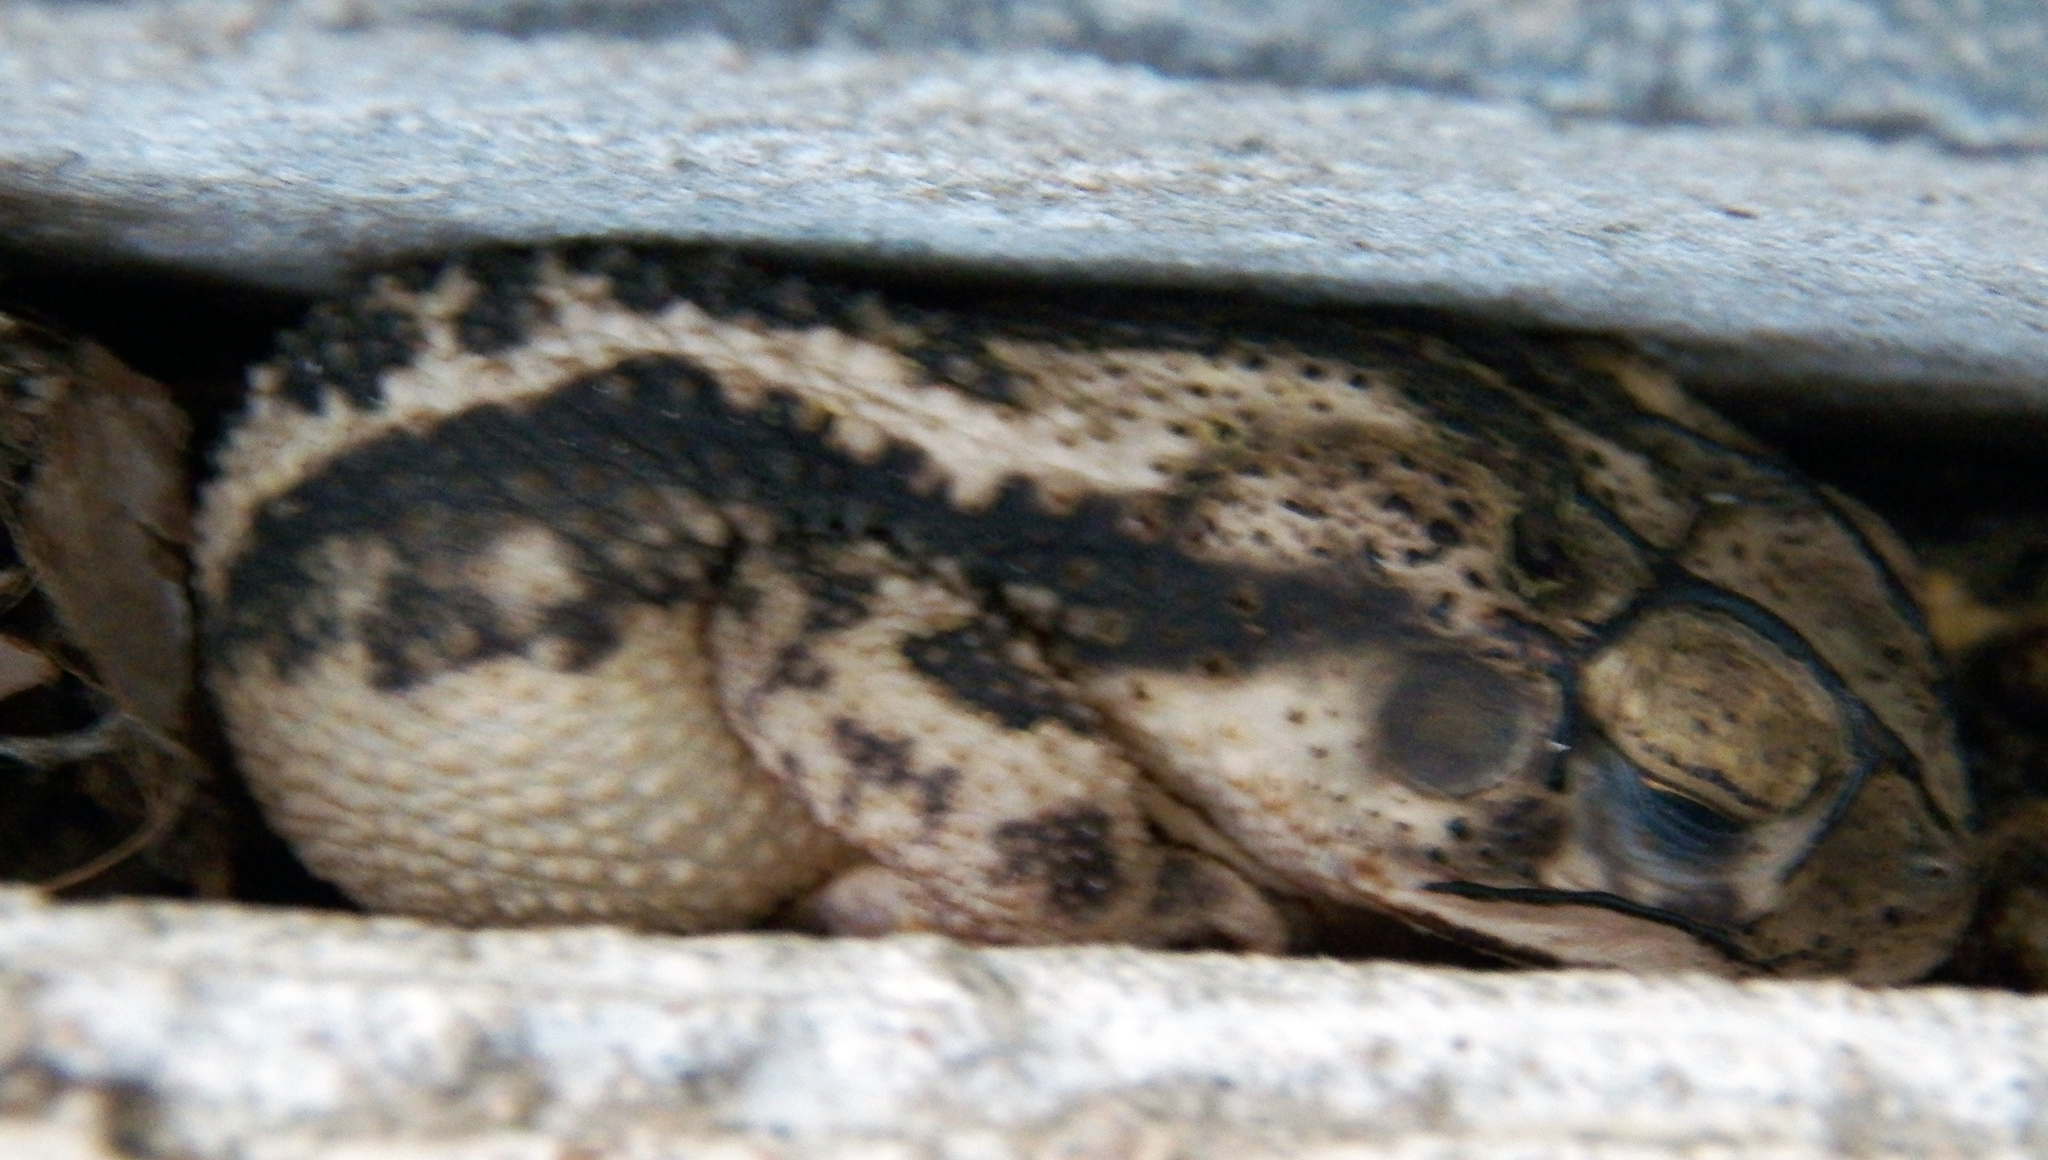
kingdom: Animalia
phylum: Chordata
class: Amphibia
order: Anura
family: Bufonidae
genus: Incilius
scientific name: Incilius nebulifer
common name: Gulf coast toad
